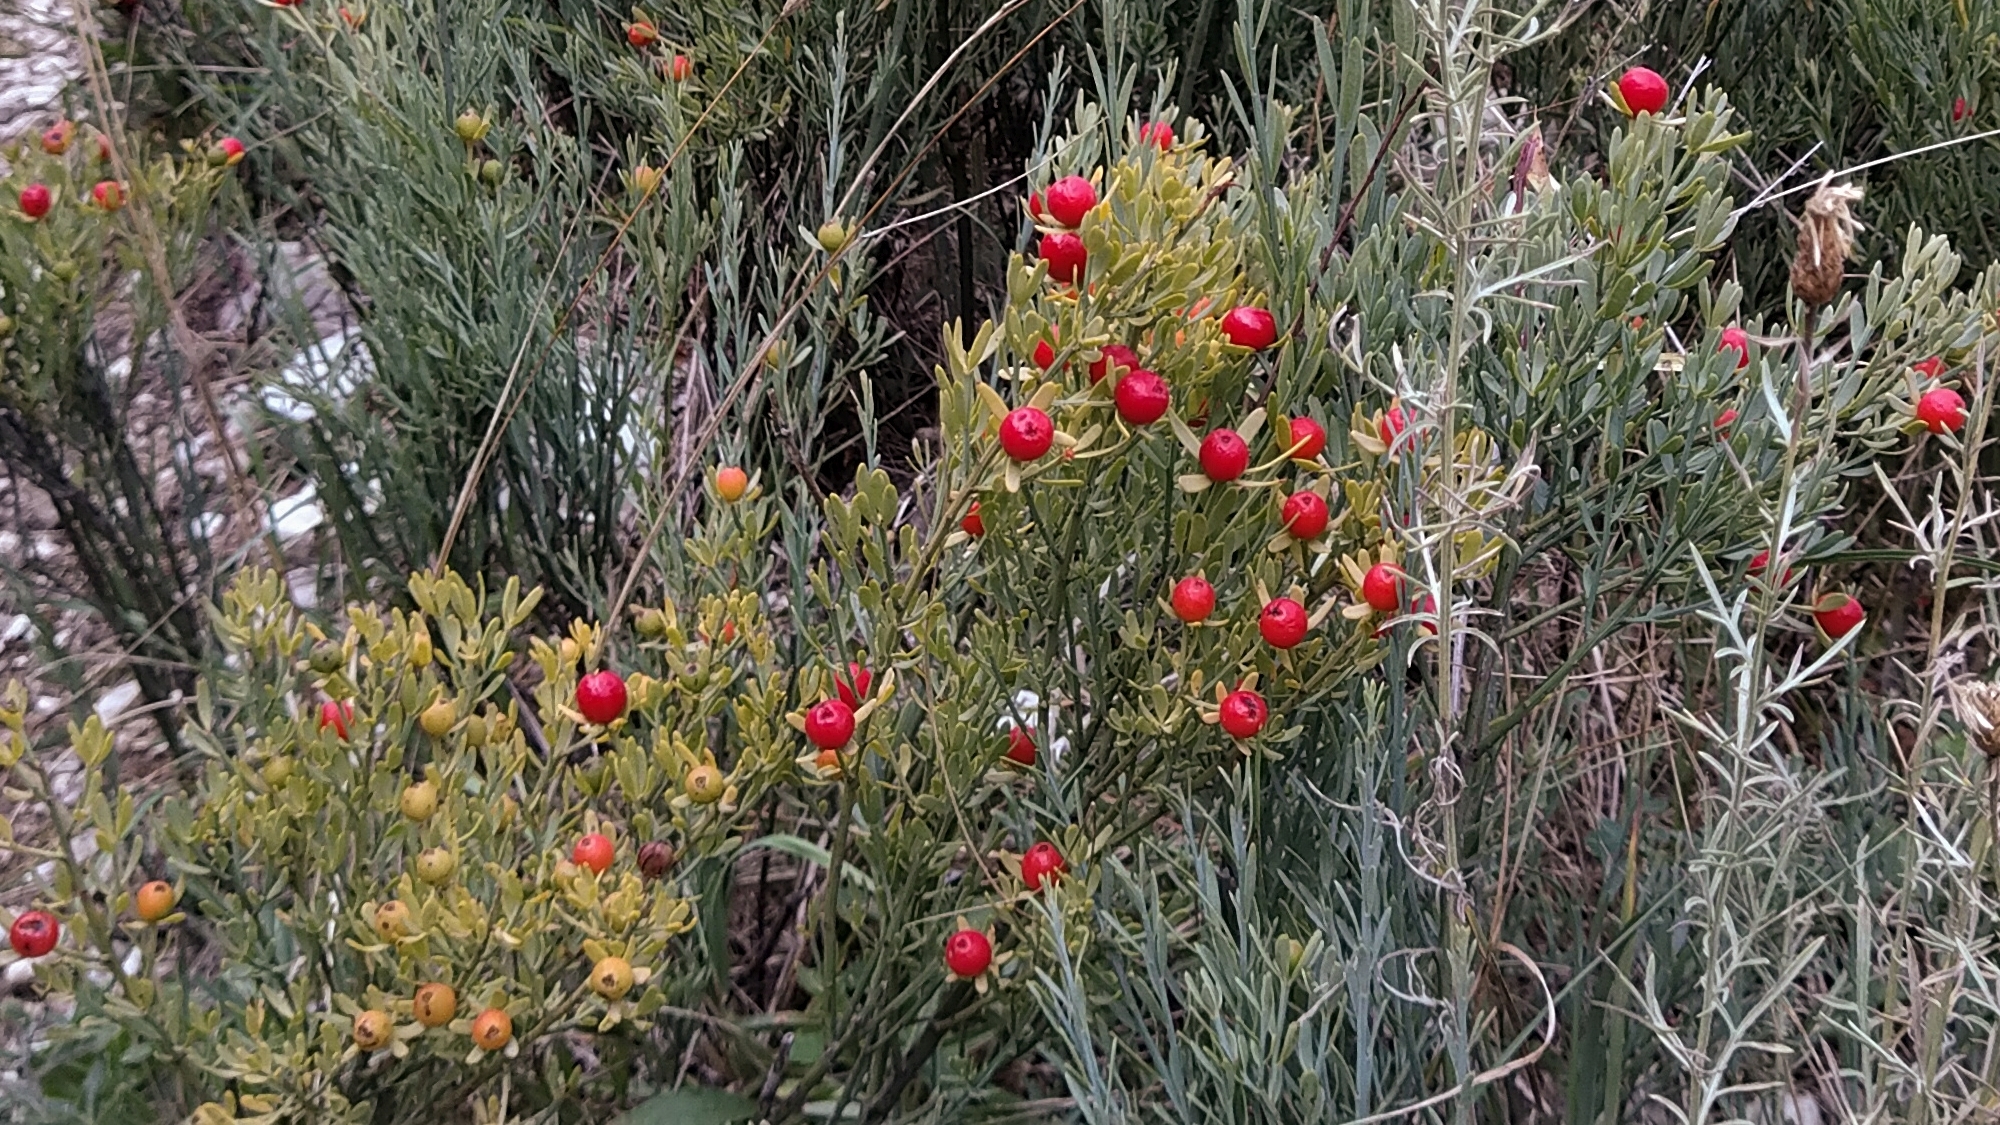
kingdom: Plantae
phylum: Tracheophyta
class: Magnoliopsida
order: Santalales
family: Santalaceae
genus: Osyris
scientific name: Osyris alba
